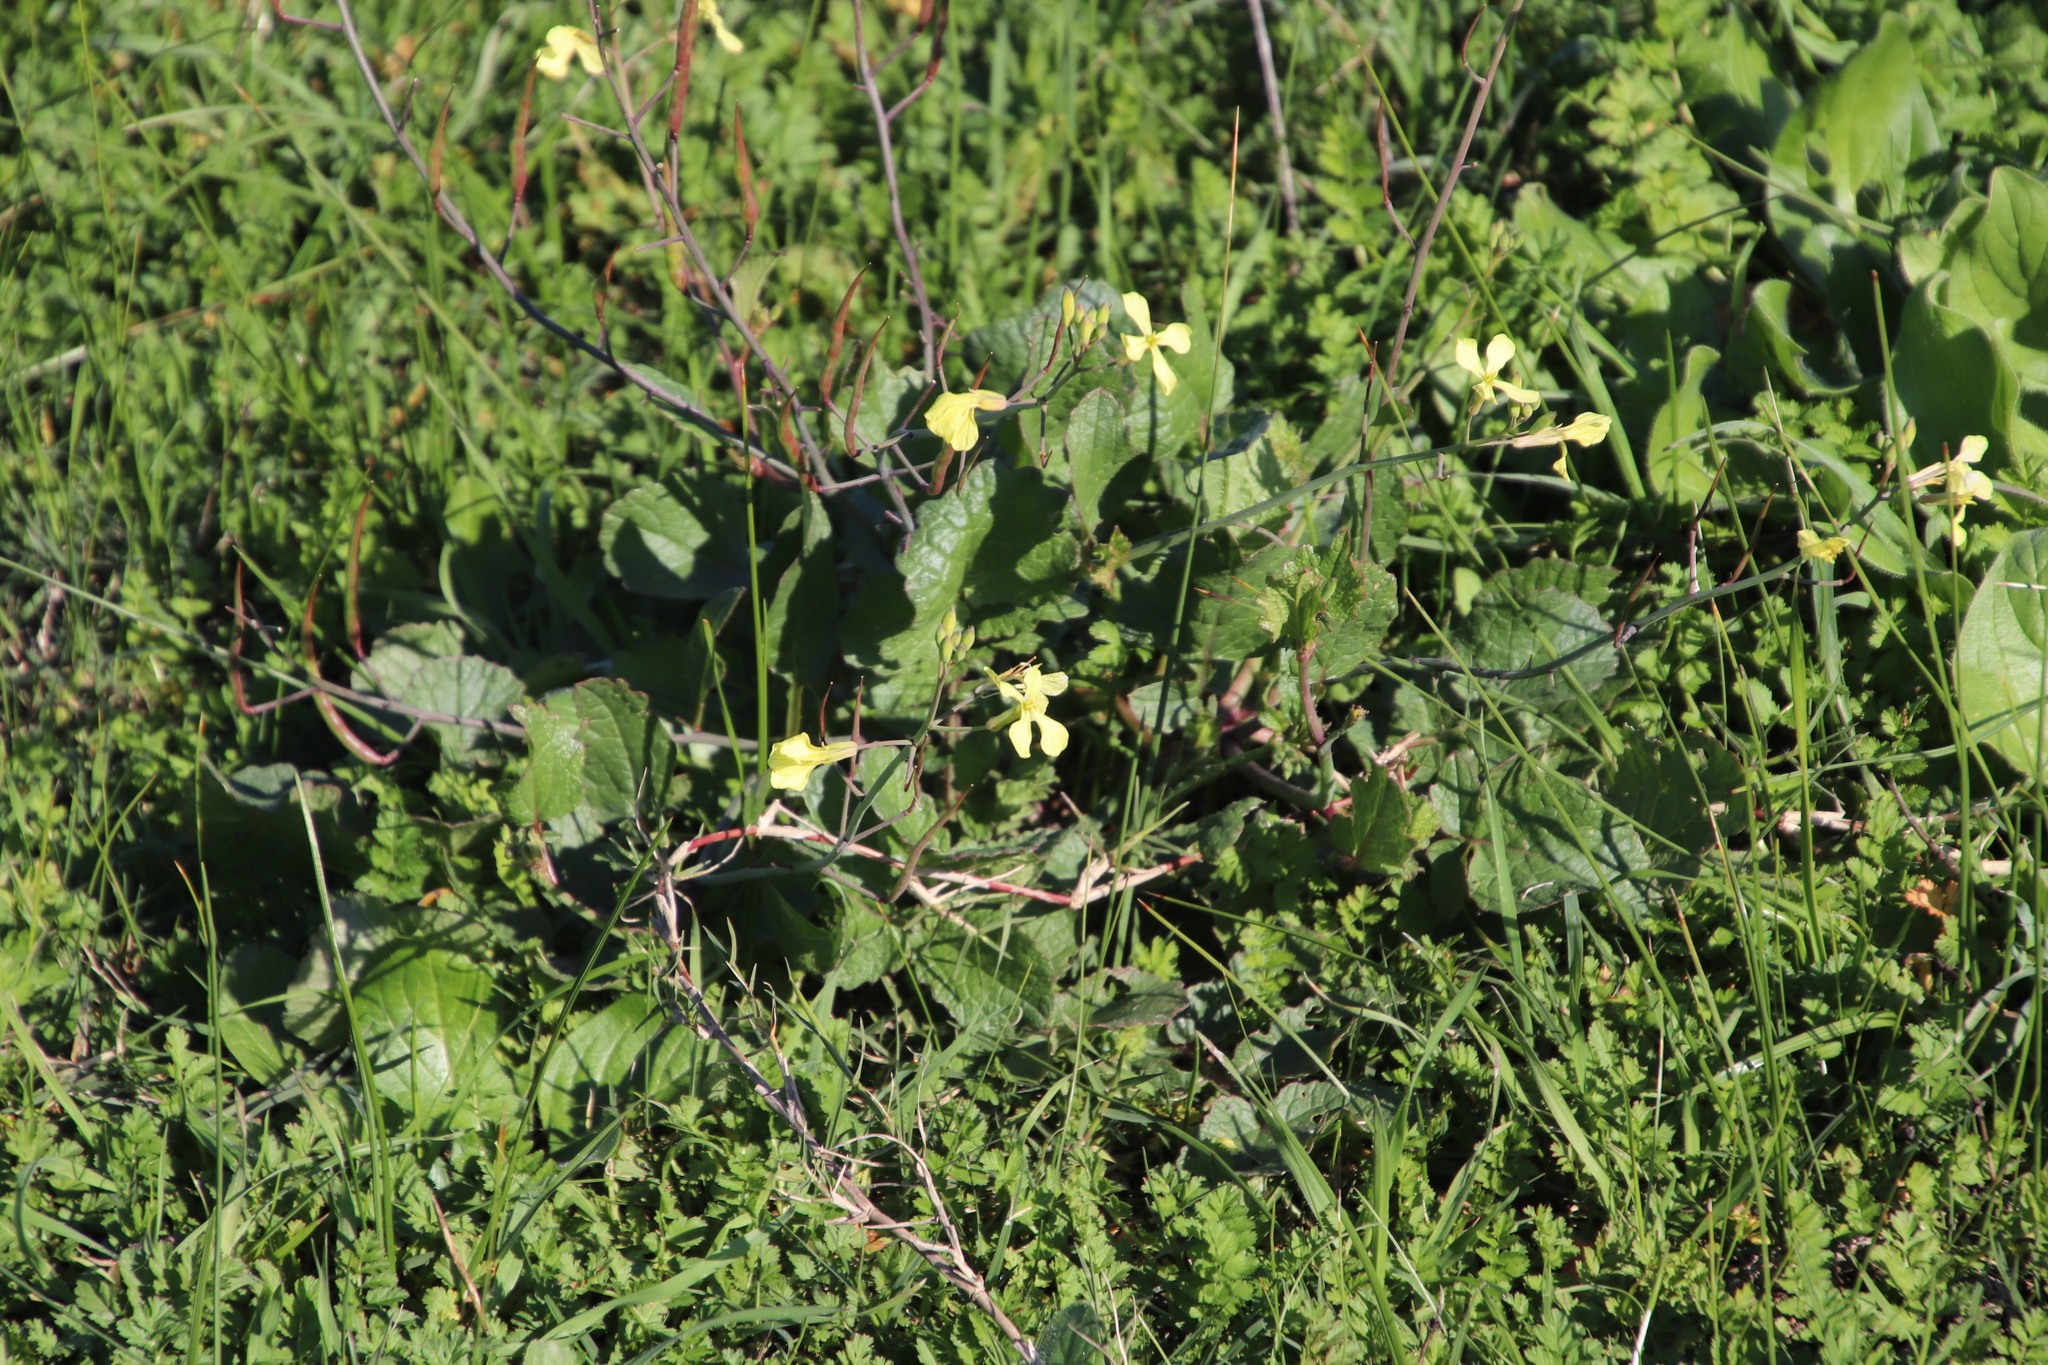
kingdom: Plantae
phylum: Tracheophyta
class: Magnoliopsida
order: Brassicales
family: Brassicaceae
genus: Raphanus
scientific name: Raphanus raphanistrum
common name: Wild radish
